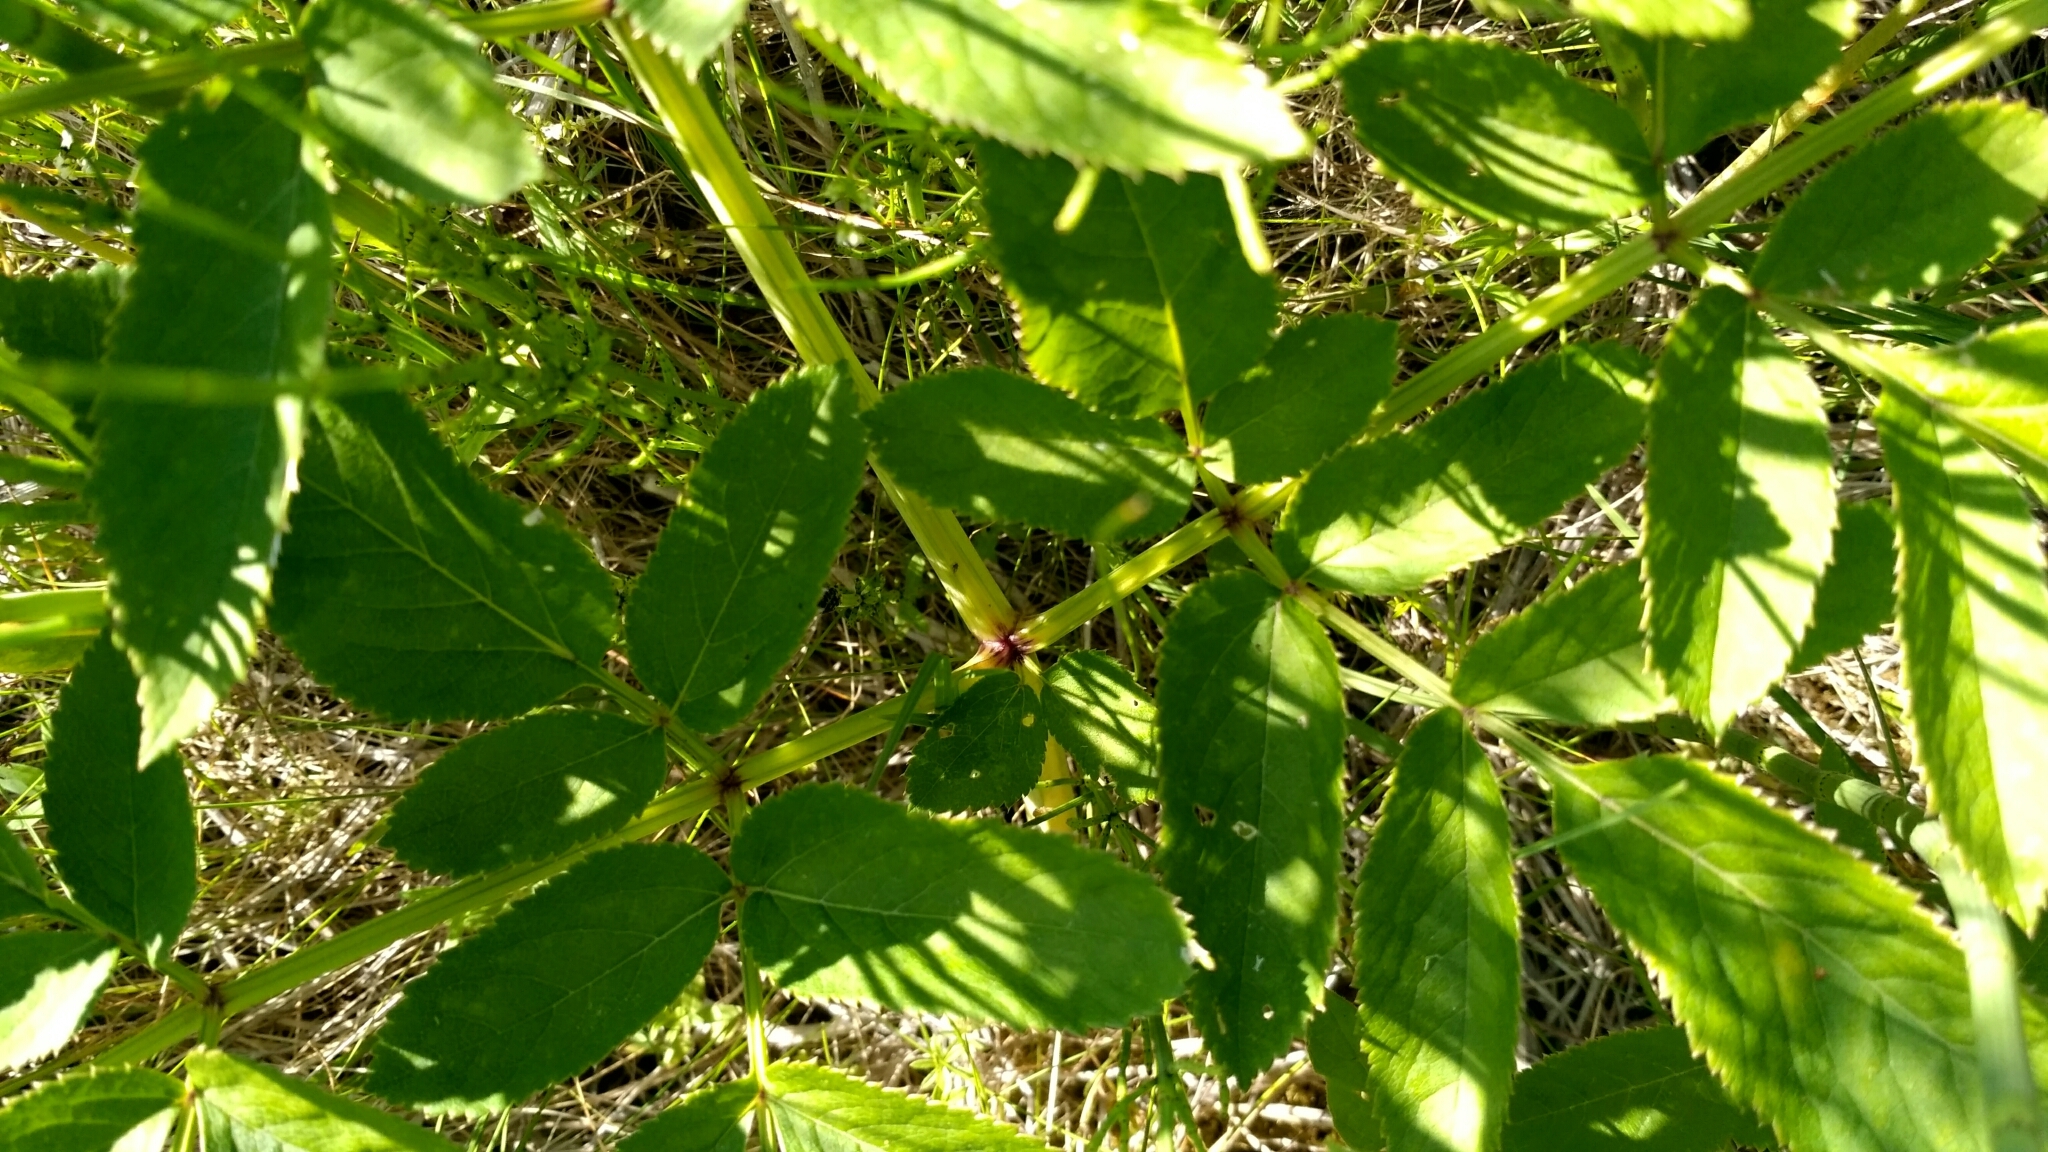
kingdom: Plantae
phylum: Tracheophyta
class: Magnoliopsida
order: Apiales
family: Apiaceae
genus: Angelica
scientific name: Angelica sylvestris
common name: Wild angelica
